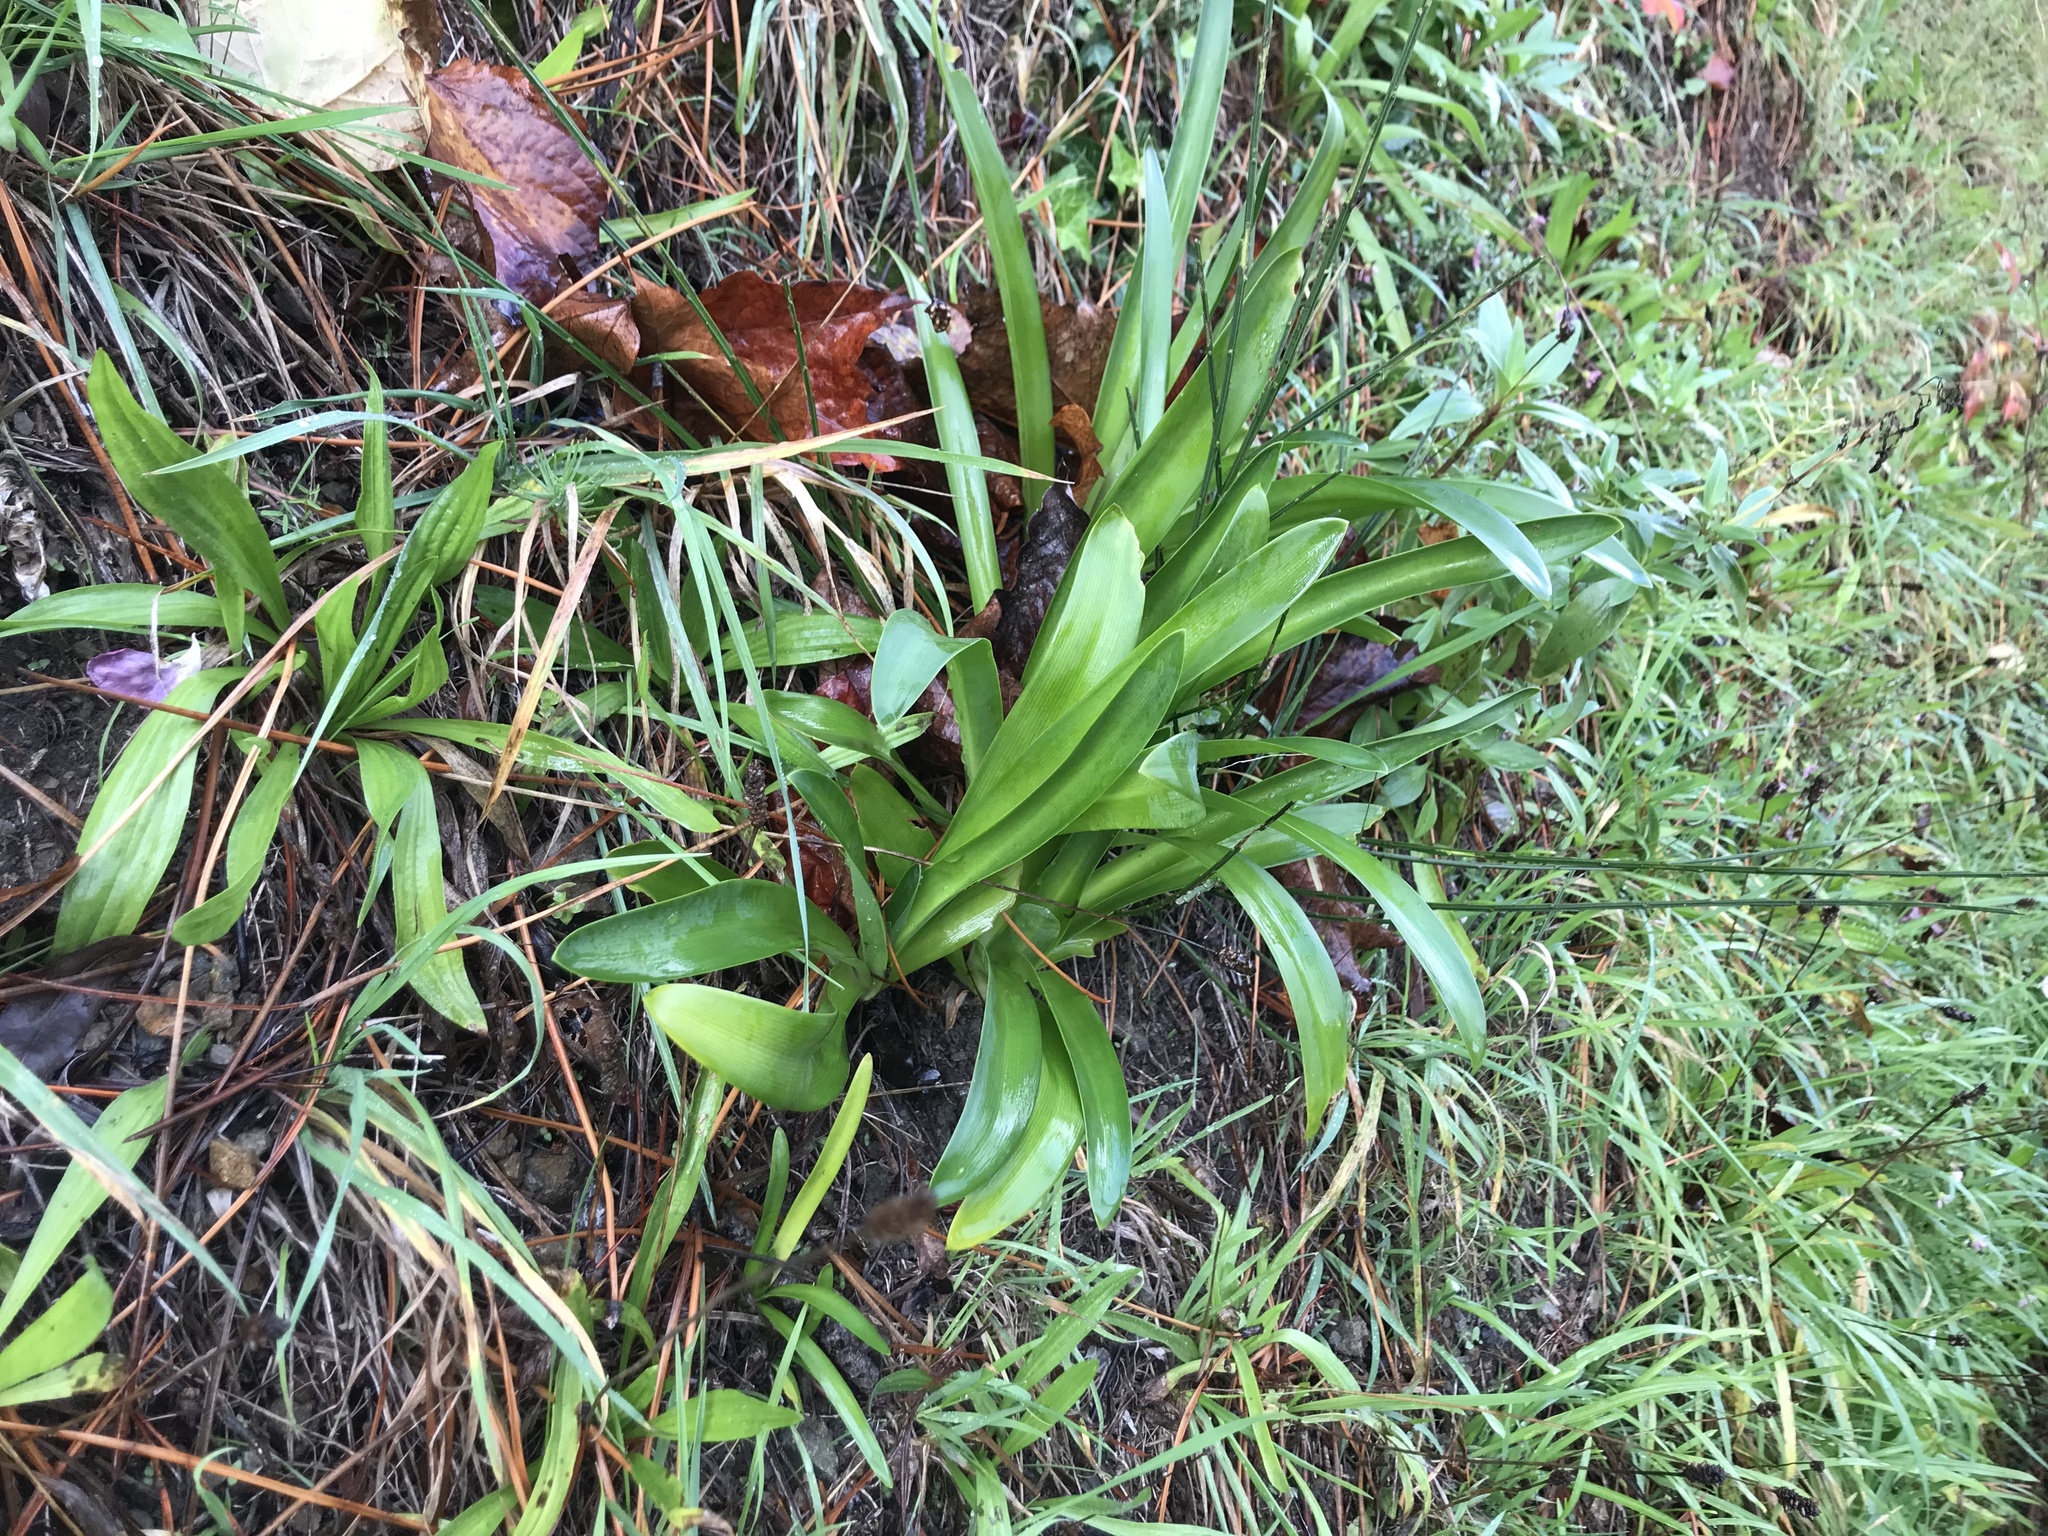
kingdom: Plantae
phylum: Tracheophyta
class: Liliopsida
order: Asparagales
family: Amaryllidaceae
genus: Agapanthus
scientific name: Agapanthus praecox
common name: African-lily
